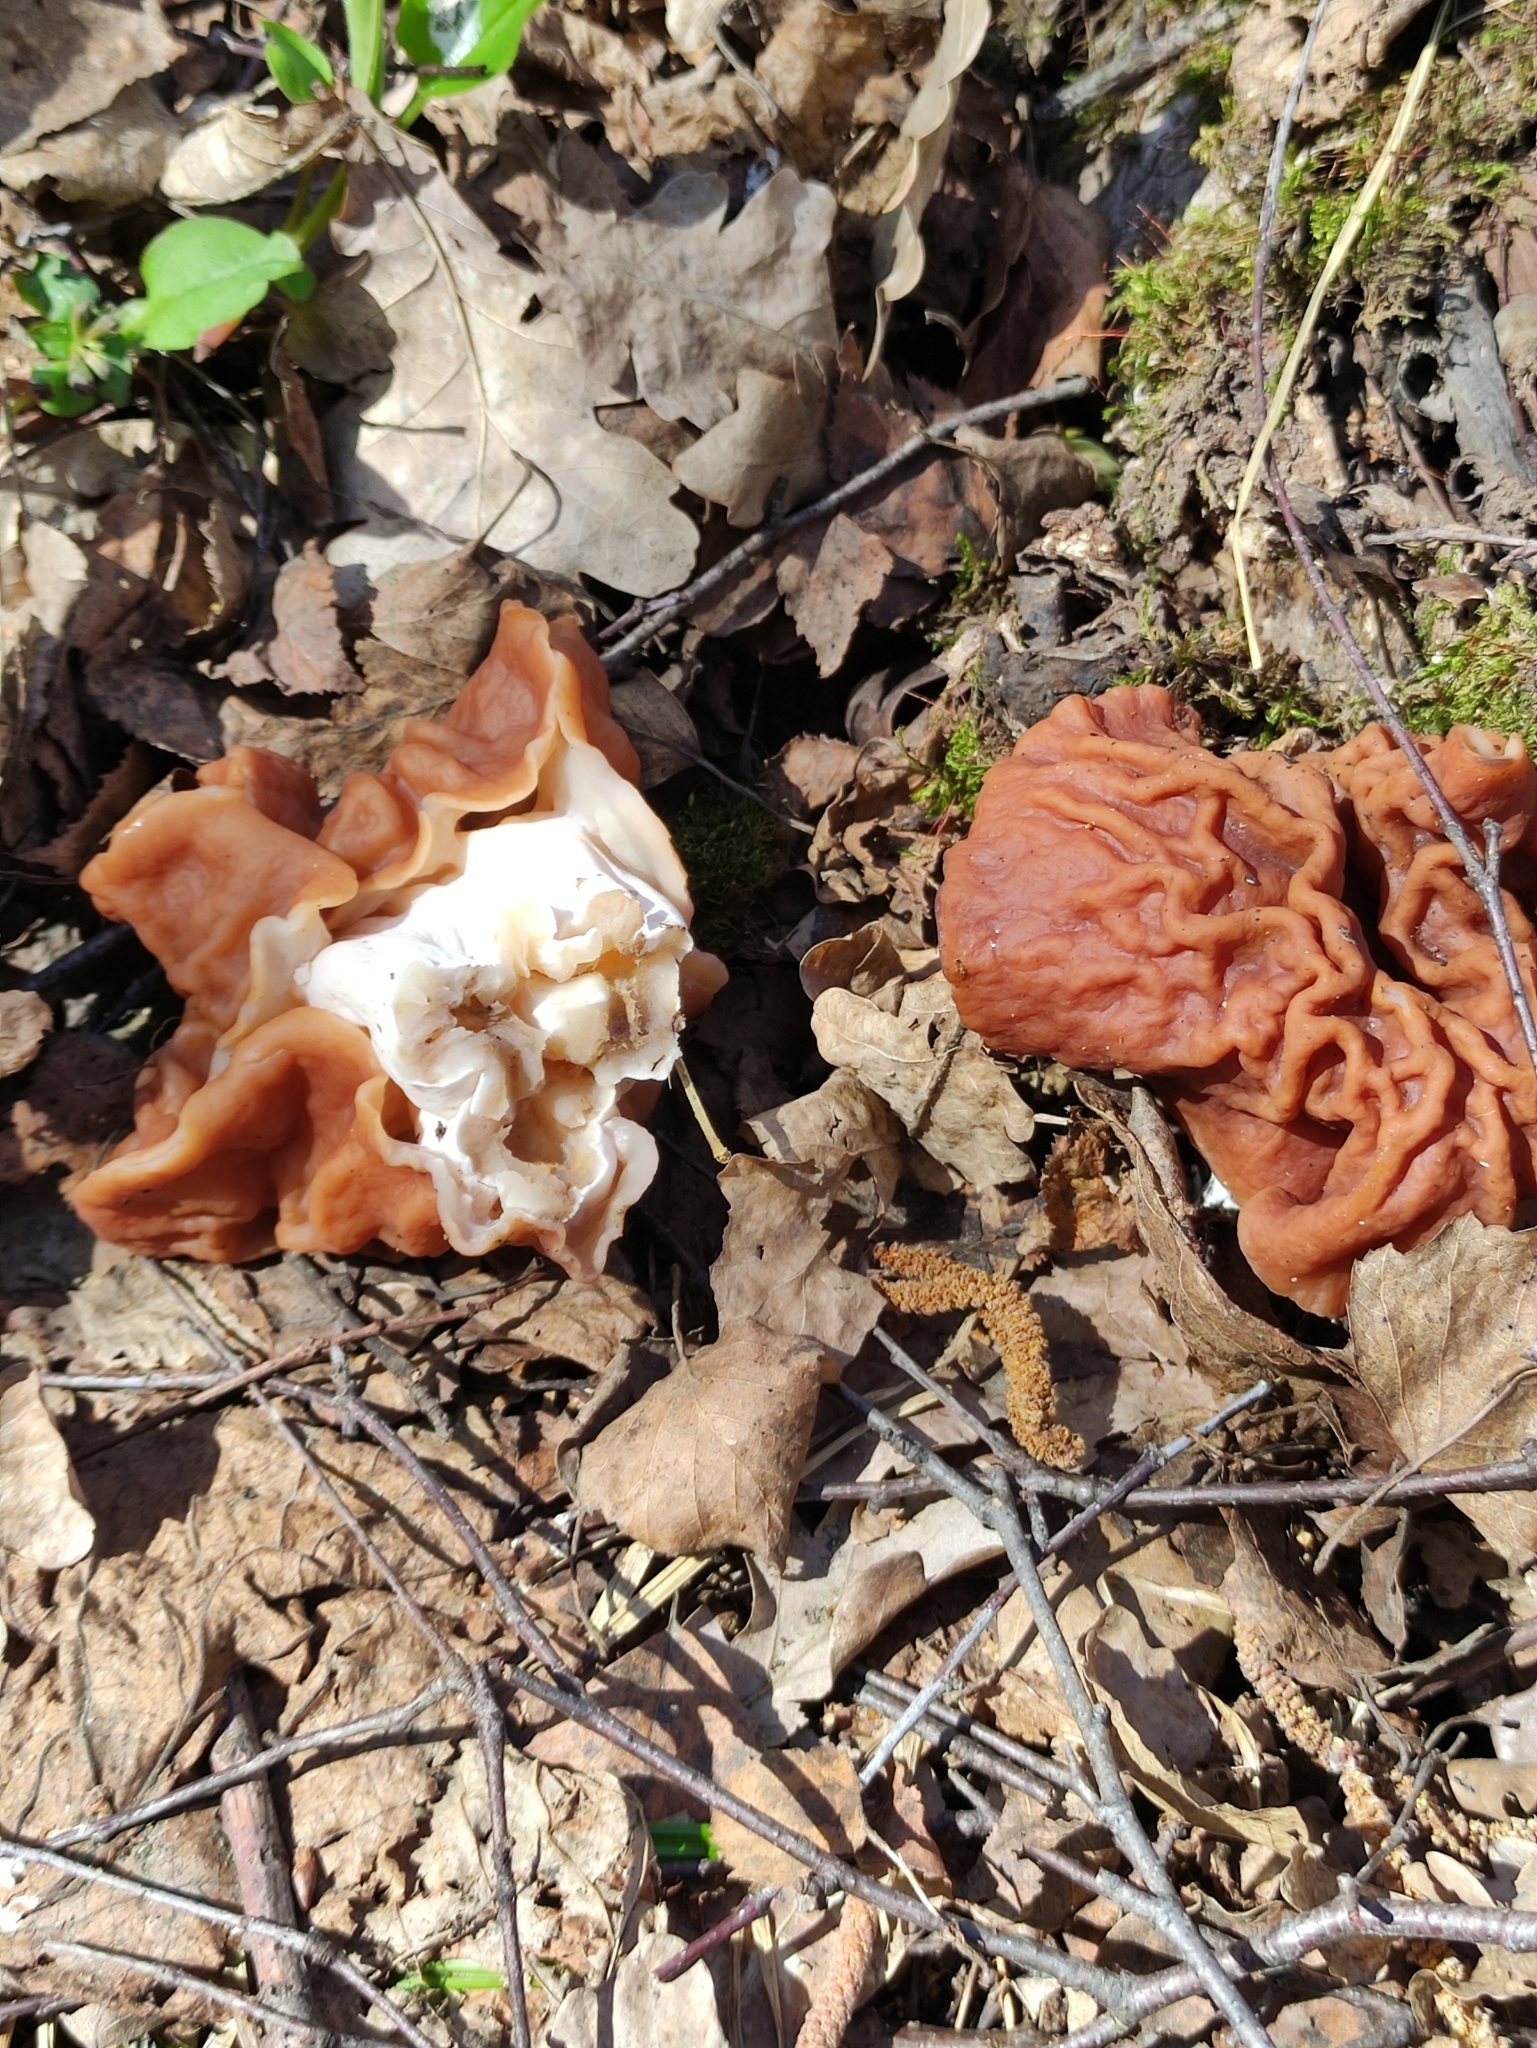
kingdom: Fungi
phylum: Ascomycota
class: Pezizomycetes
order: Pezizales
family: Discinaceae
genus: Discina
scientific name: Discina fastigiata
